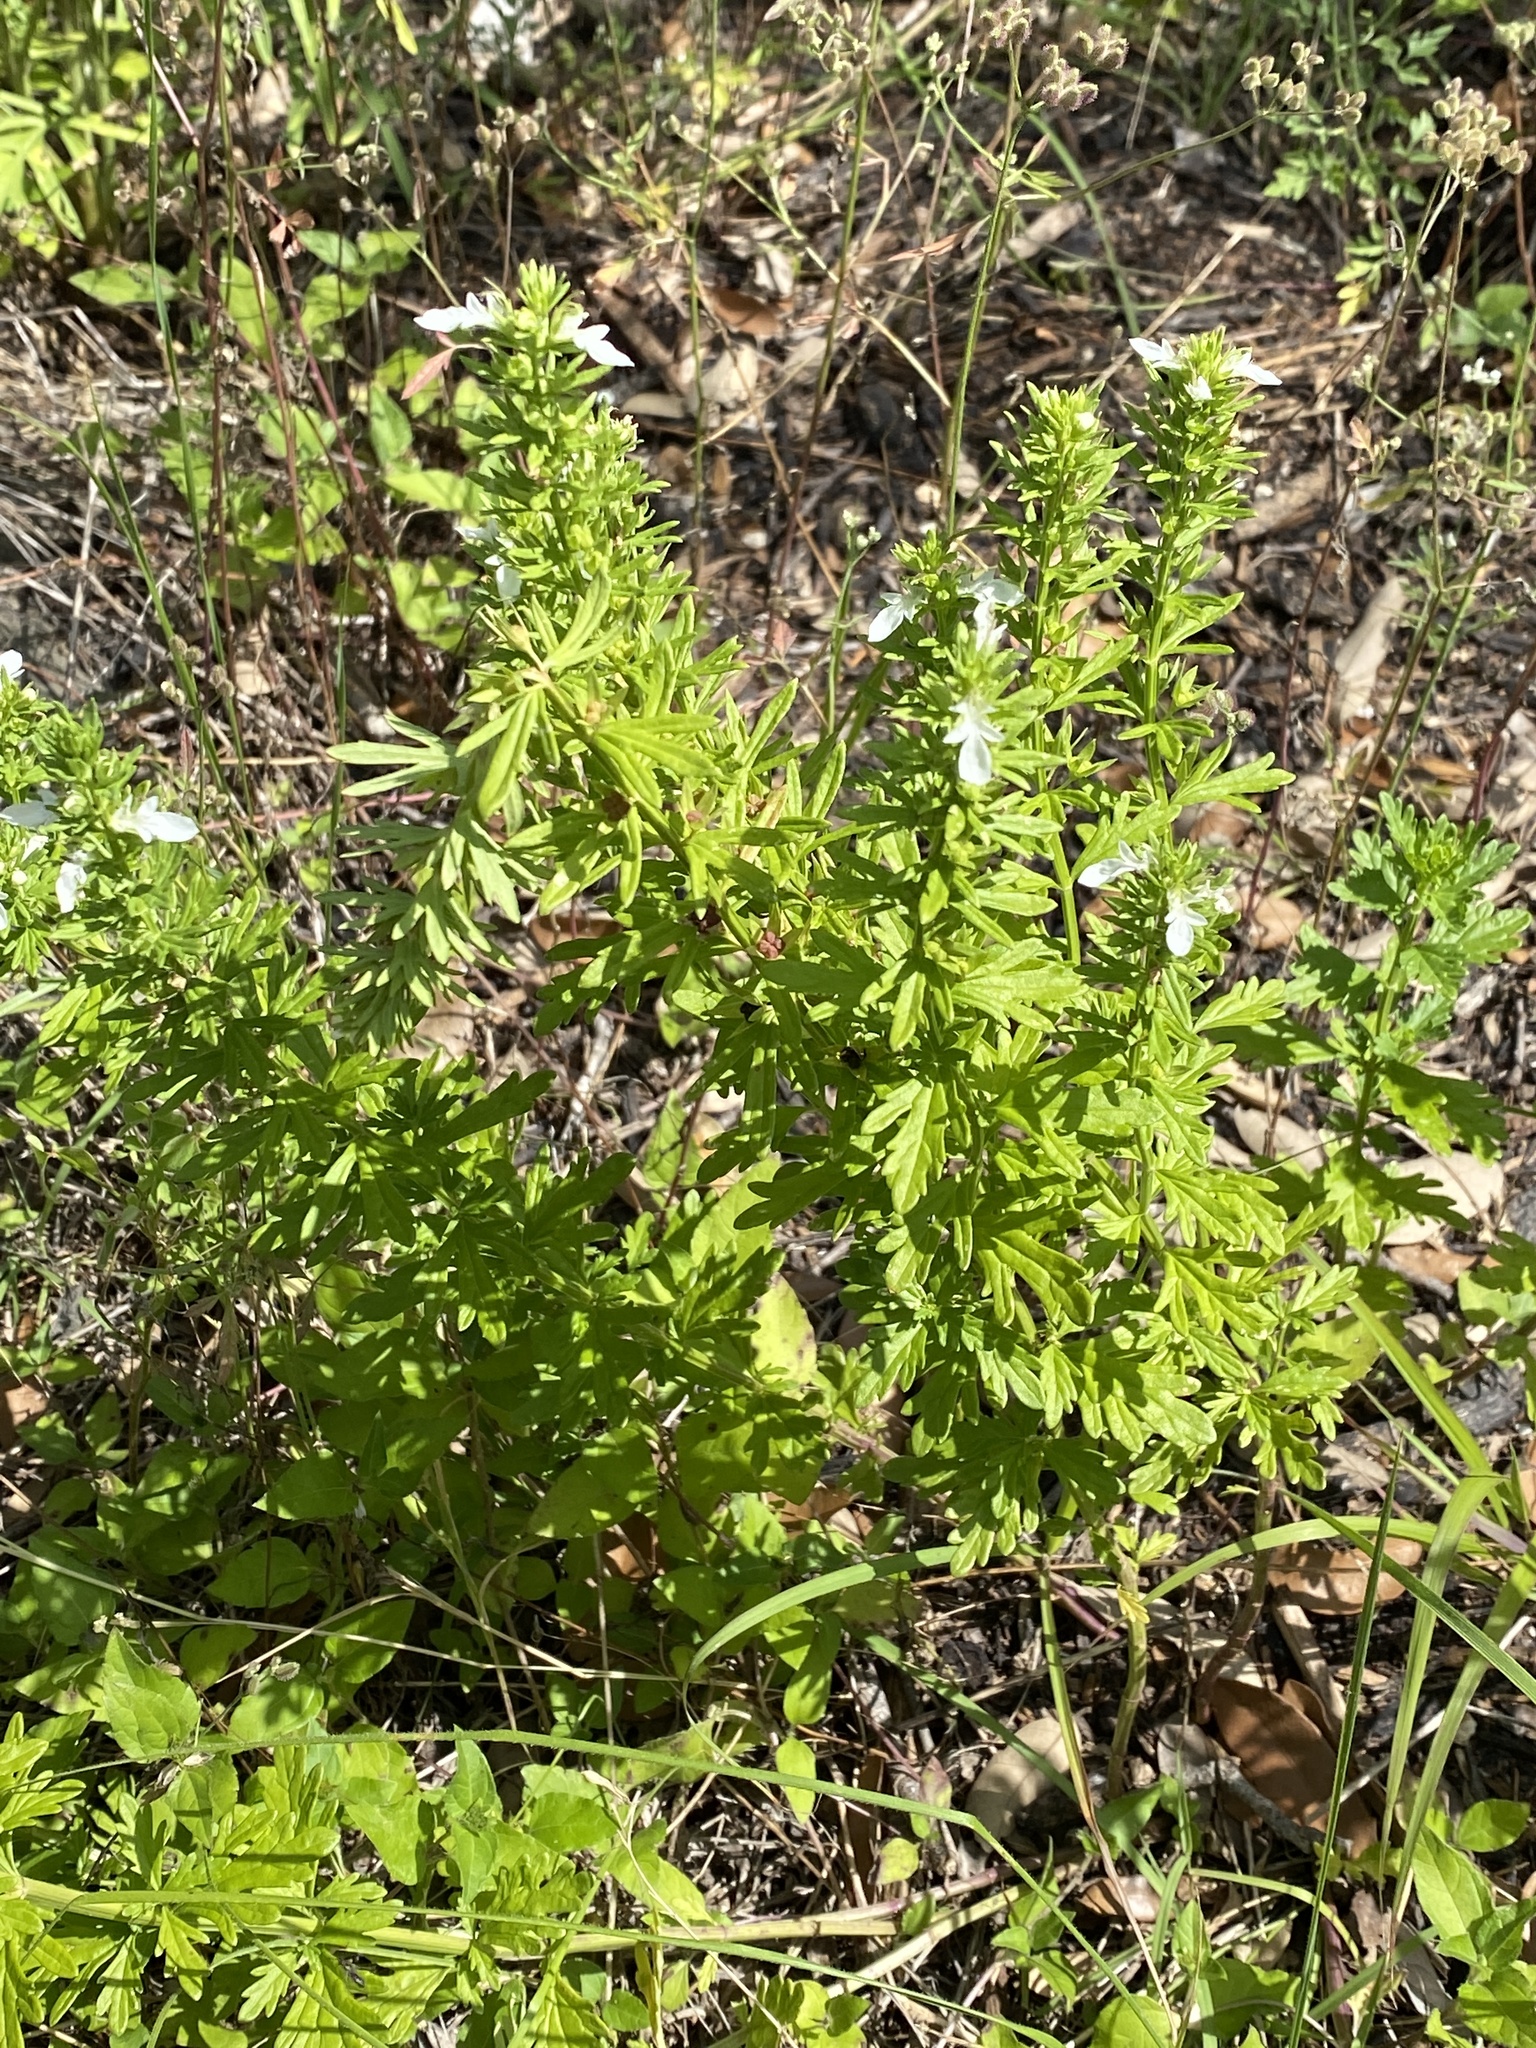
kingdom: Plantae
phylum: Tracheophyta
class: Magnoliopsida
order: Lamiales
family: Lamiaceae
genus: Teucrium
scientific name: Teucrium cubense
